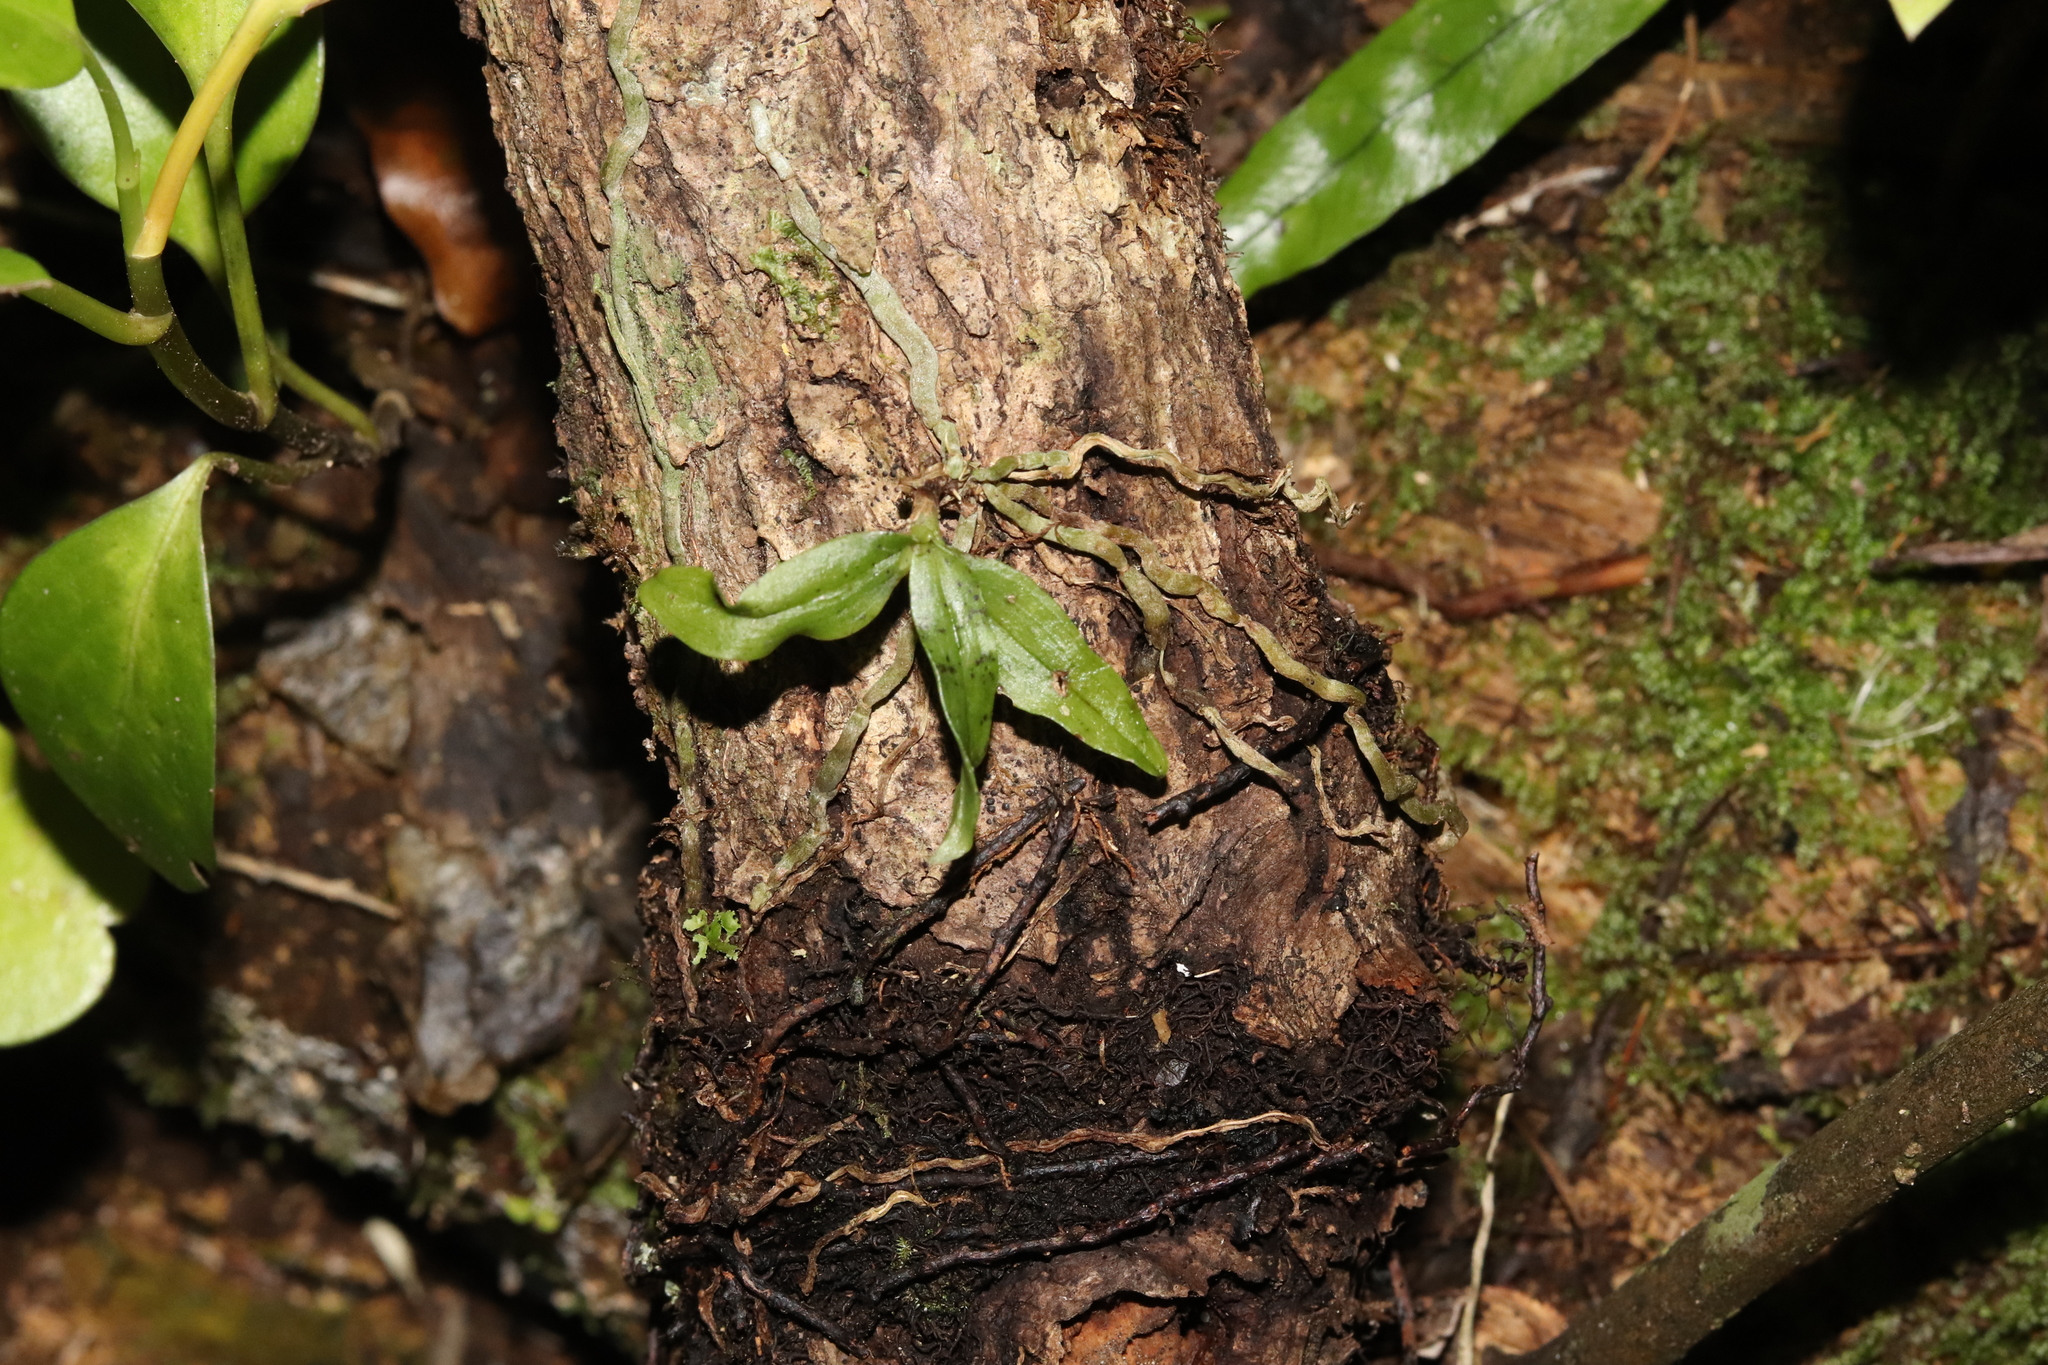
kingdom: Plantae
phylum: Tracheophyta
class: Liliopsida
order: Asparagales
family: Orchidaceae
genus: Drymoanthus
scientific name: Drymoanthus flavus
